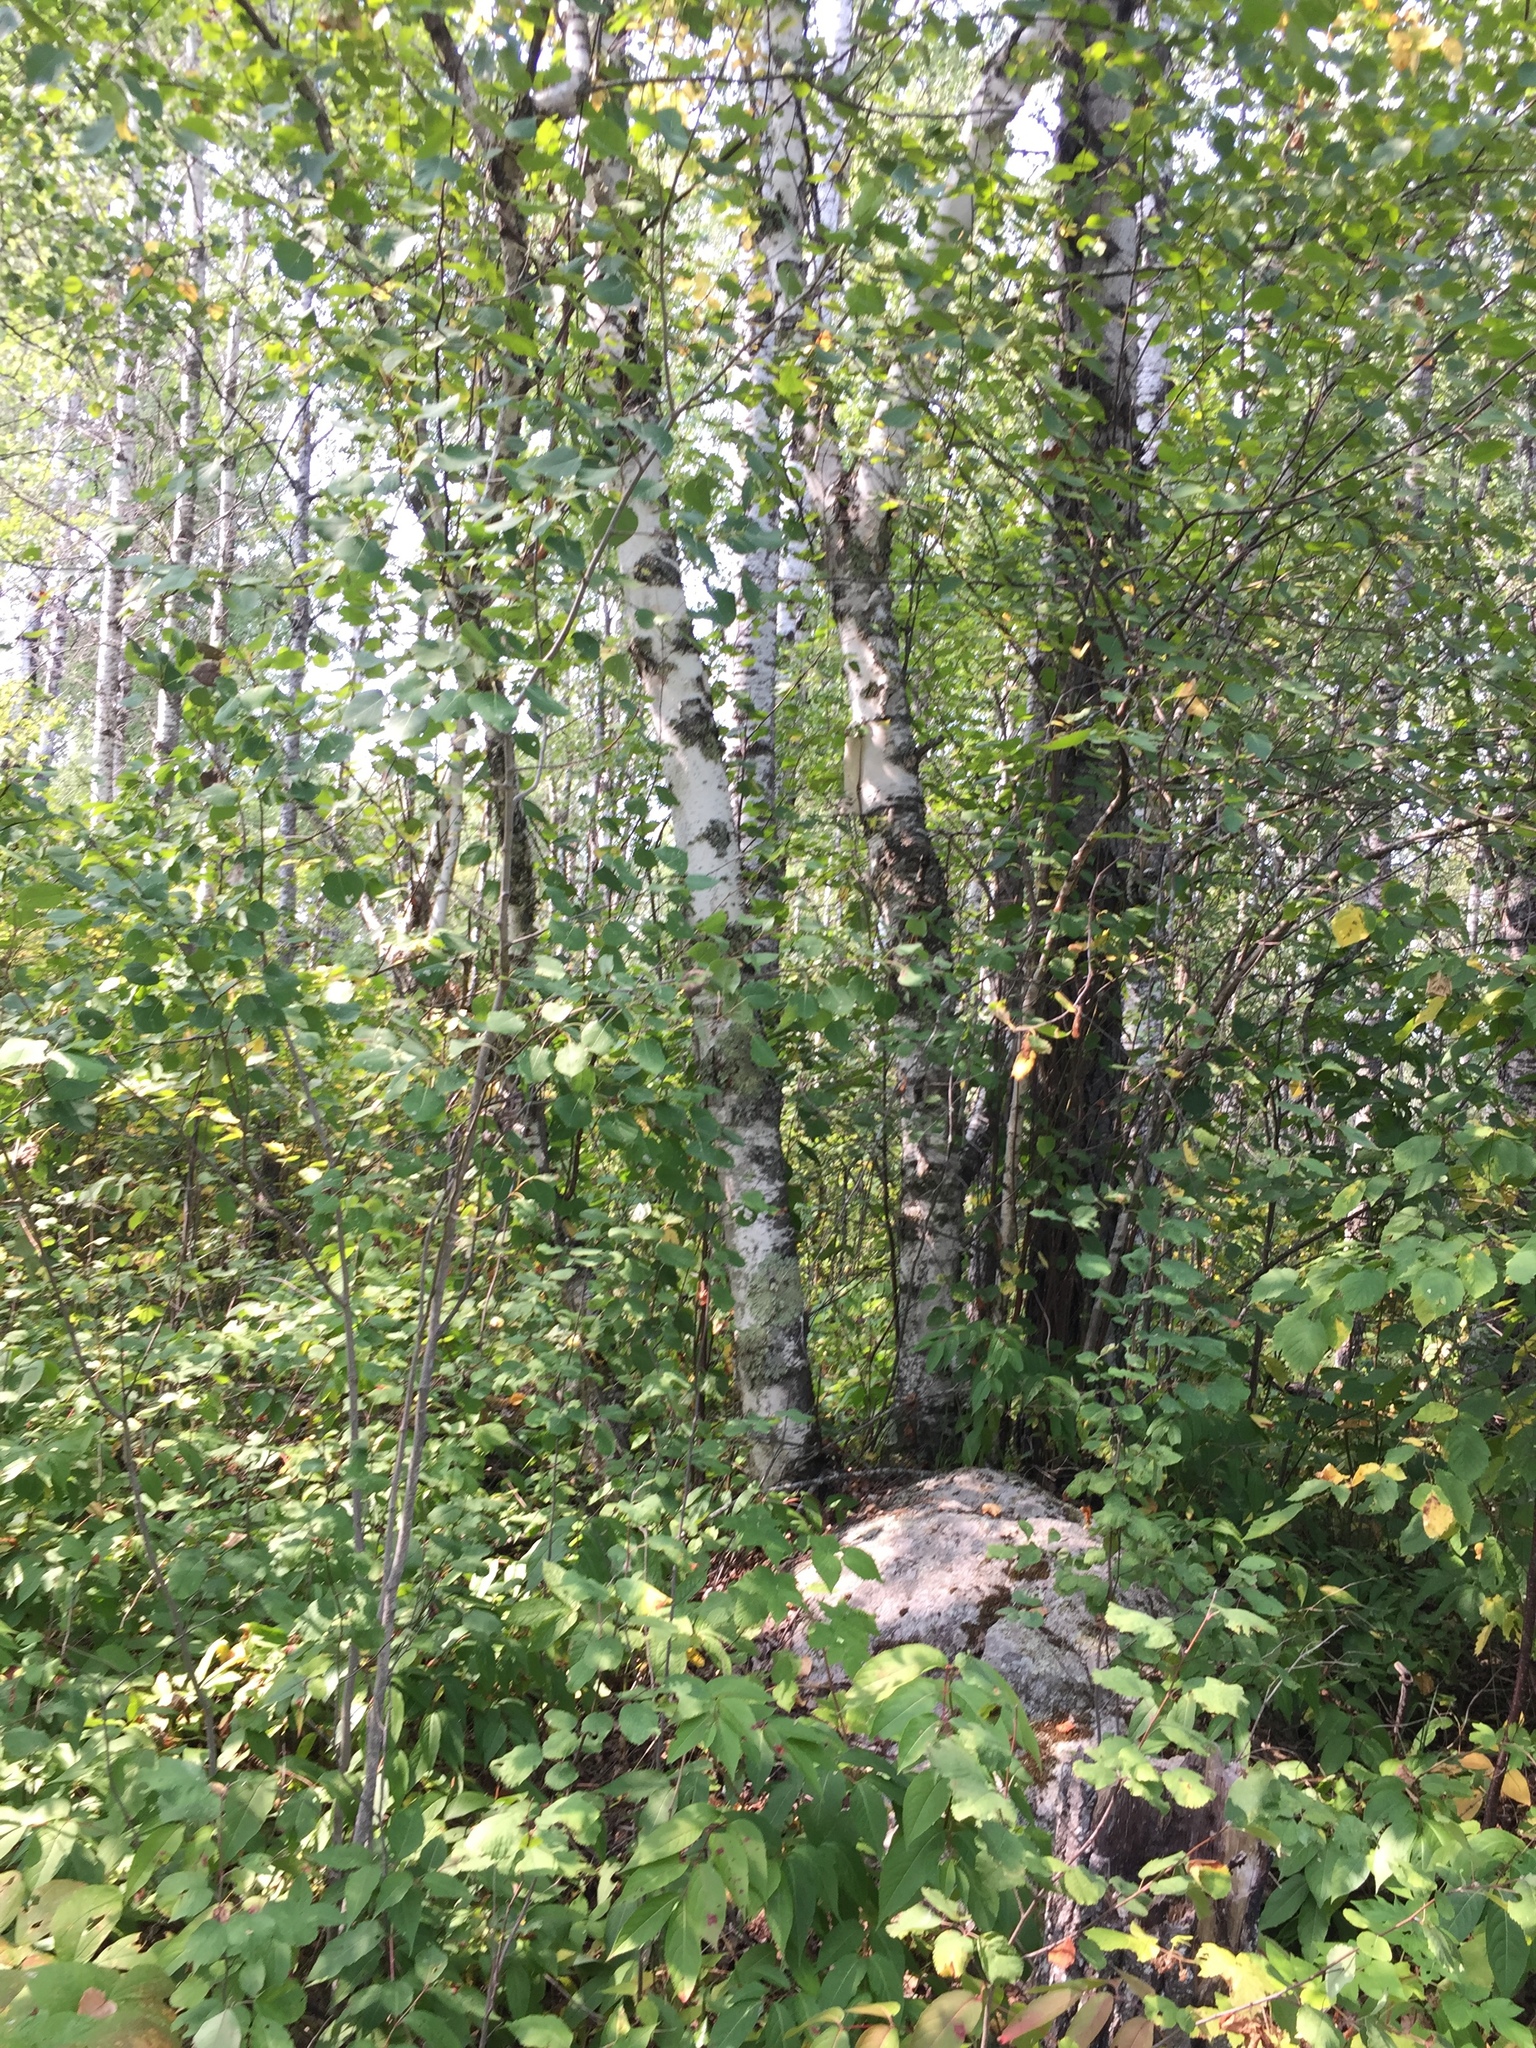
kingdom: Plantae
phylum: Tracheophyta
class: Magnoliopsida
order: Fagales
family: Betulaceae
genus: Betula
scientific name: Betula papyrifera
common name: Paper birch
